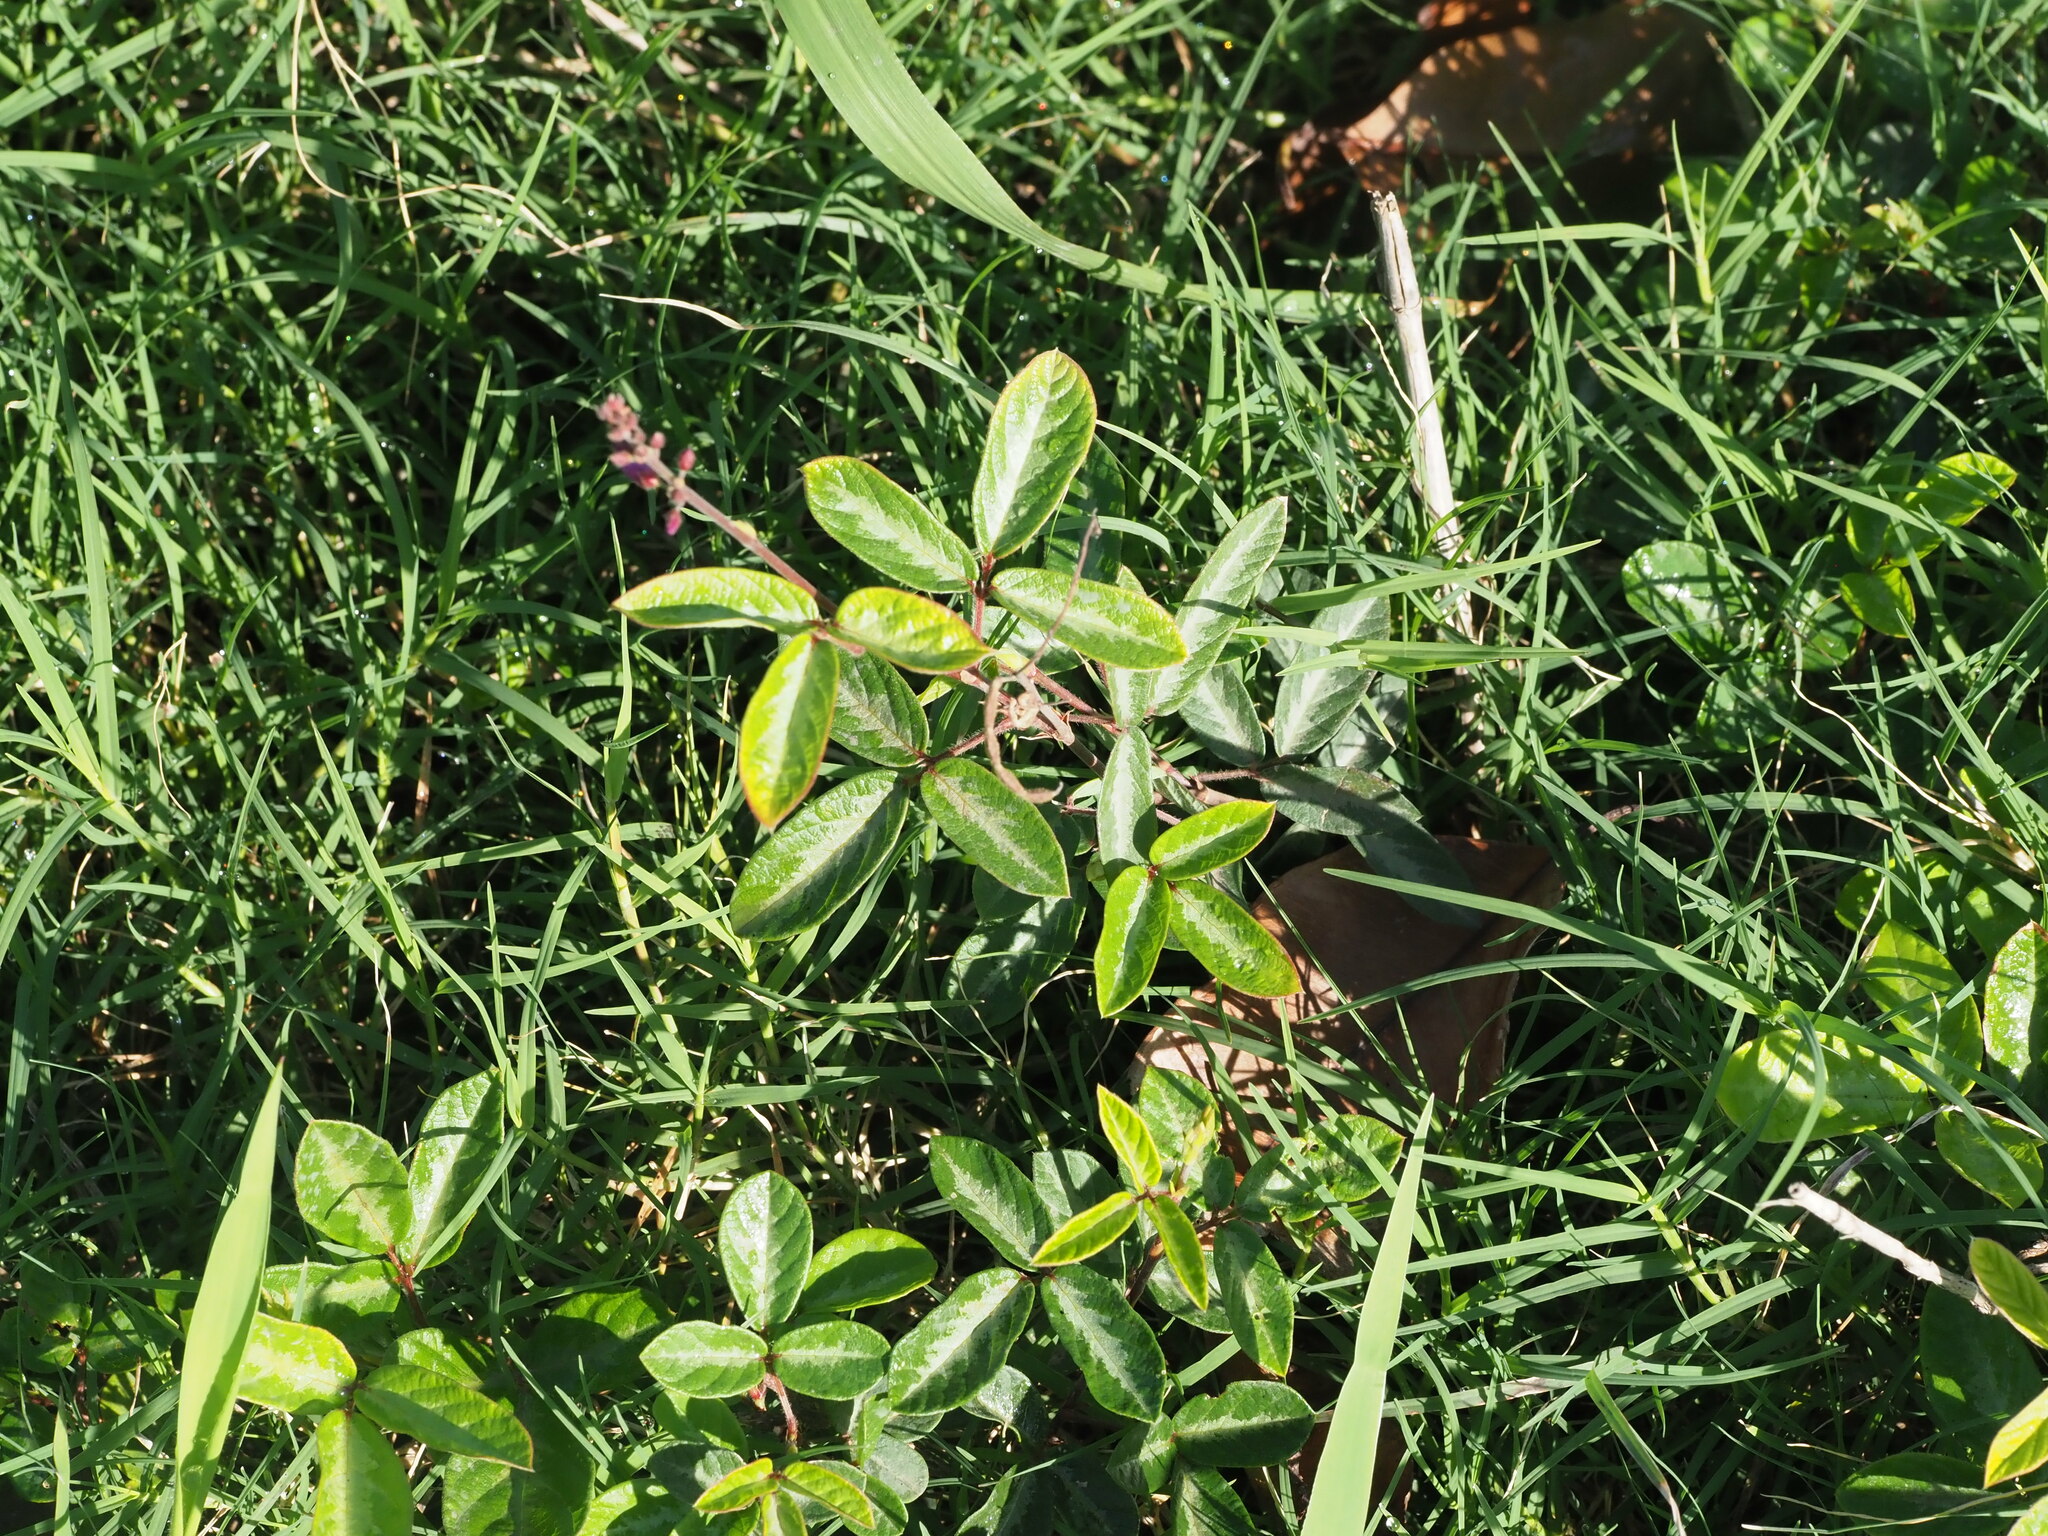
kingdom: Plantae
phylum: Tracheophyta
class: Magnoliopsida
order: Fabales
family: Fabaceae
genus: Desmodium
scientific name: Desmodium incanum
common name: Tickclover
